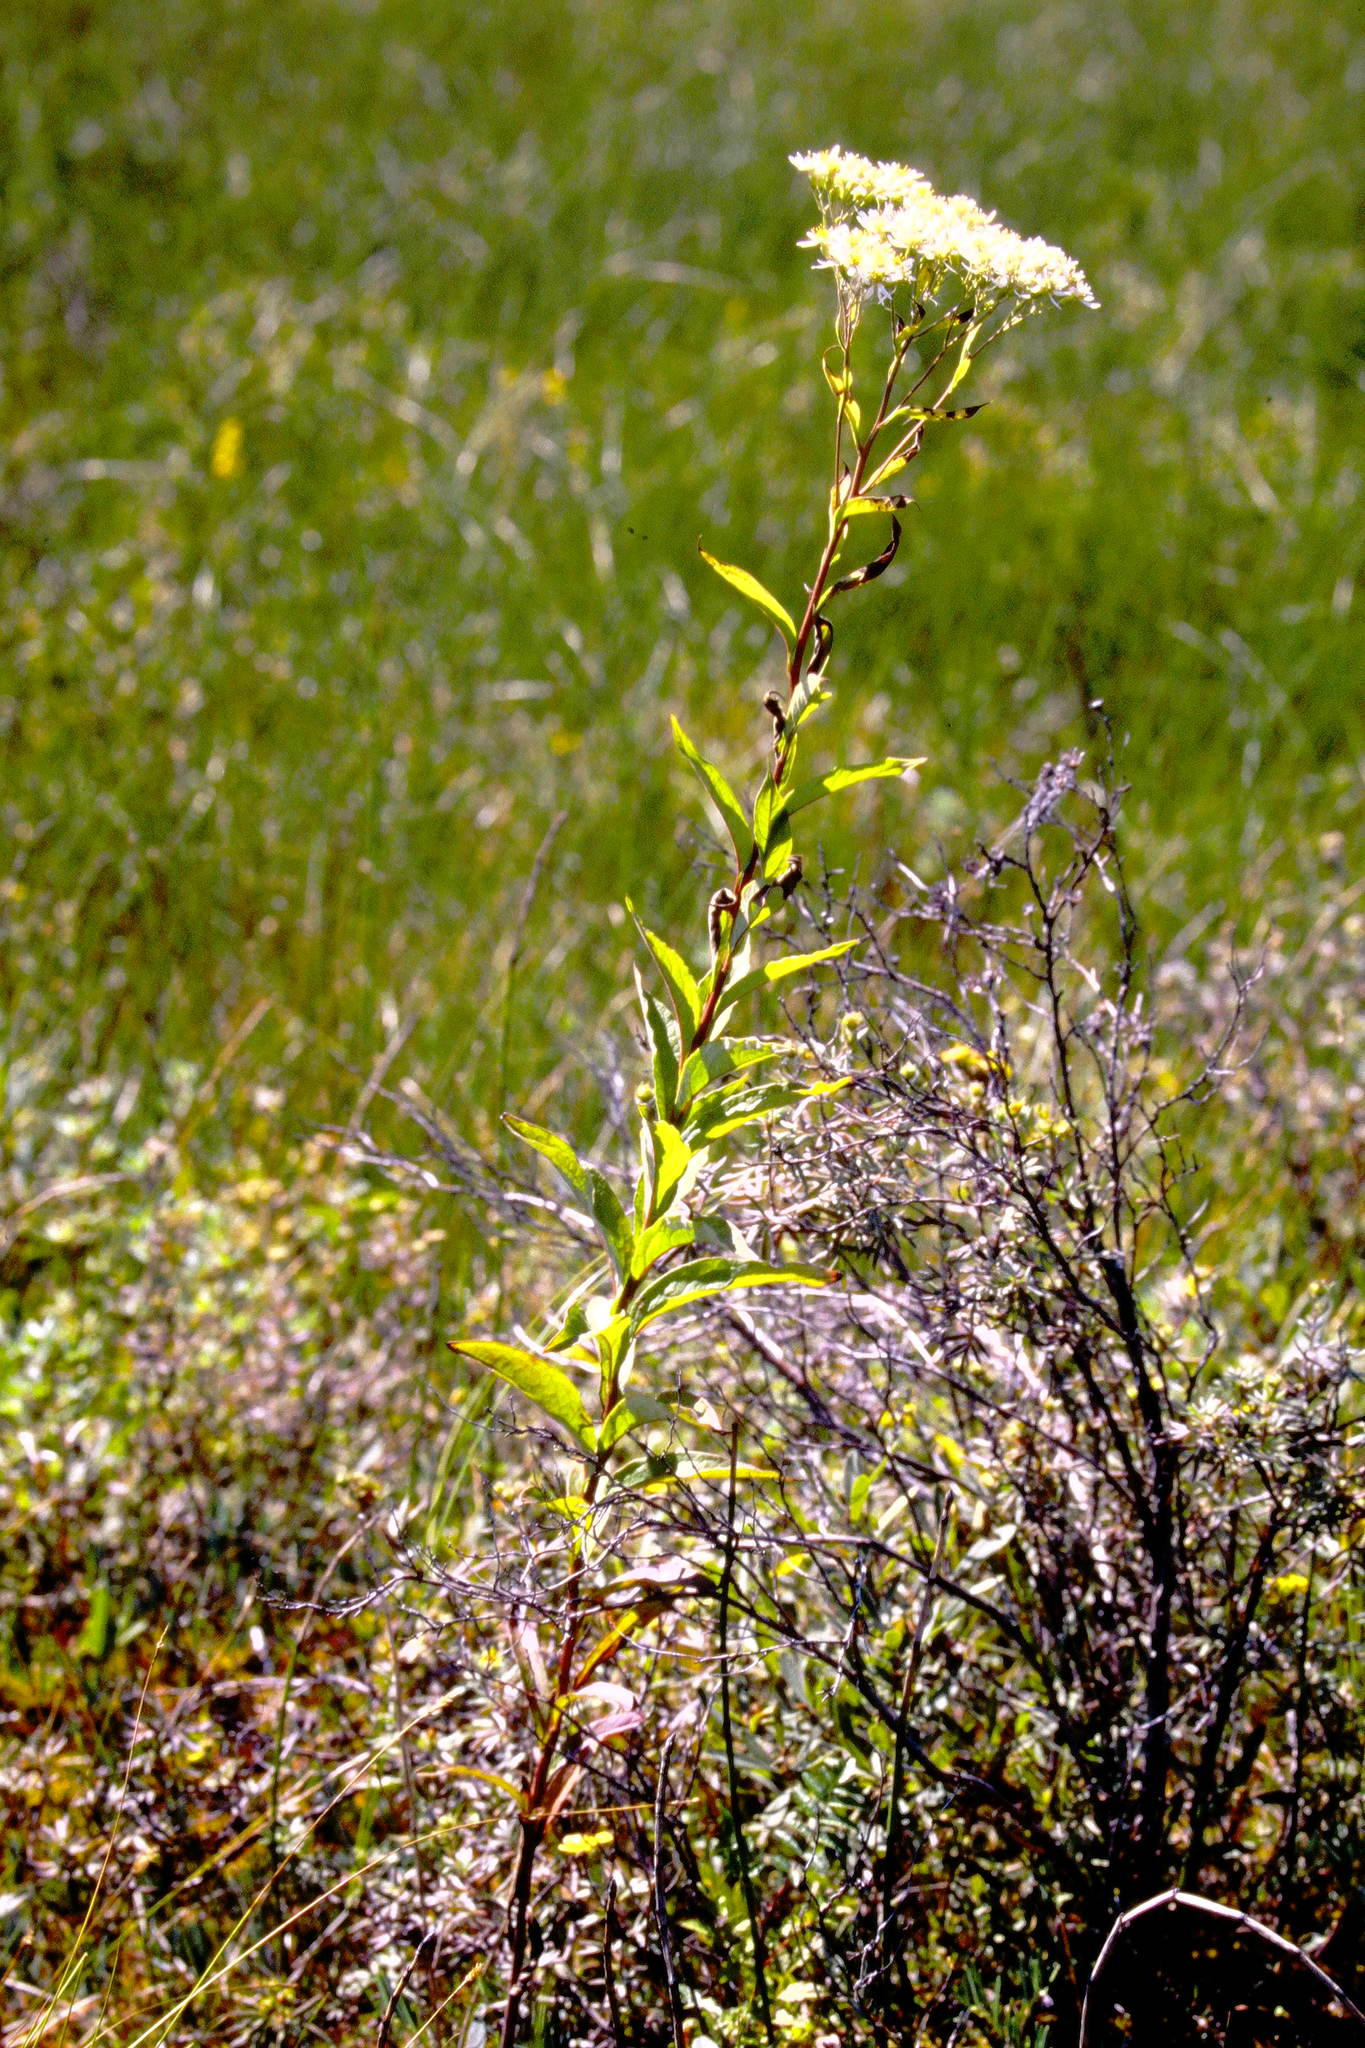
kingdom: Plantae
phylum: Tracheophyta
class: Magnoliopsida
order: Asterales
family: Asteraceae
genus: Doellingeria
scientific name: Doellingeria umbellata
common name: Flat-top white aster
